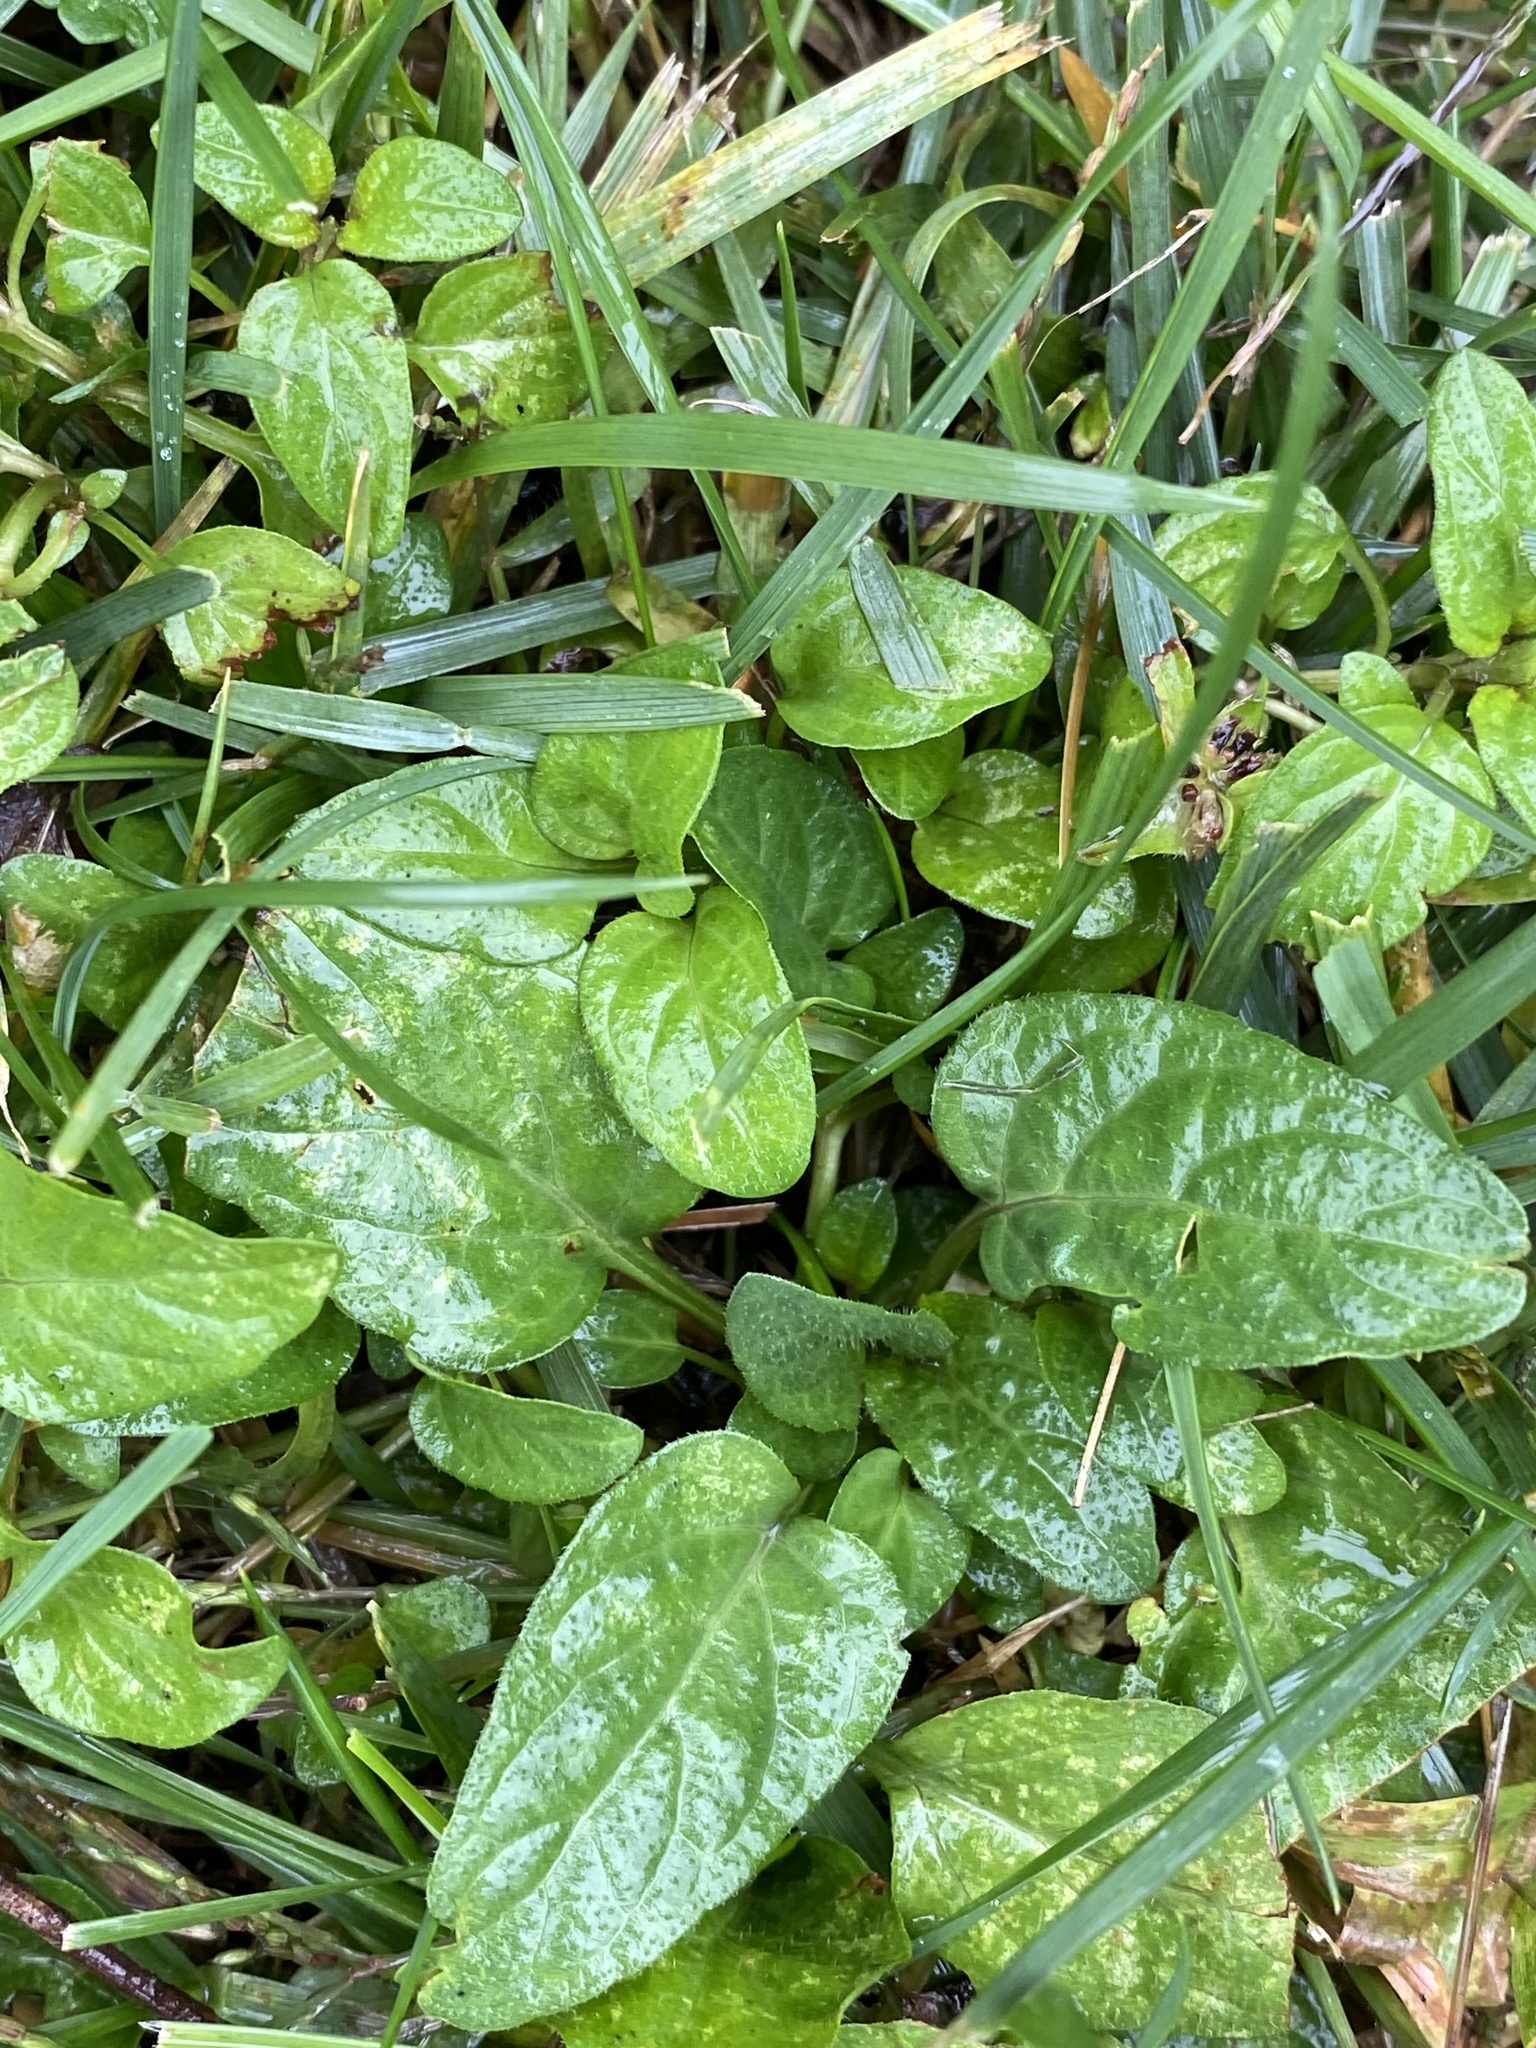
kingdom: Plantae
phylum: Tracheophyta
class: Magnoliopsida
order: Lamiales
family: Lamiaceae
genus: Prunella
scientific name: Prunella vulgaris
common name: Heal-all
